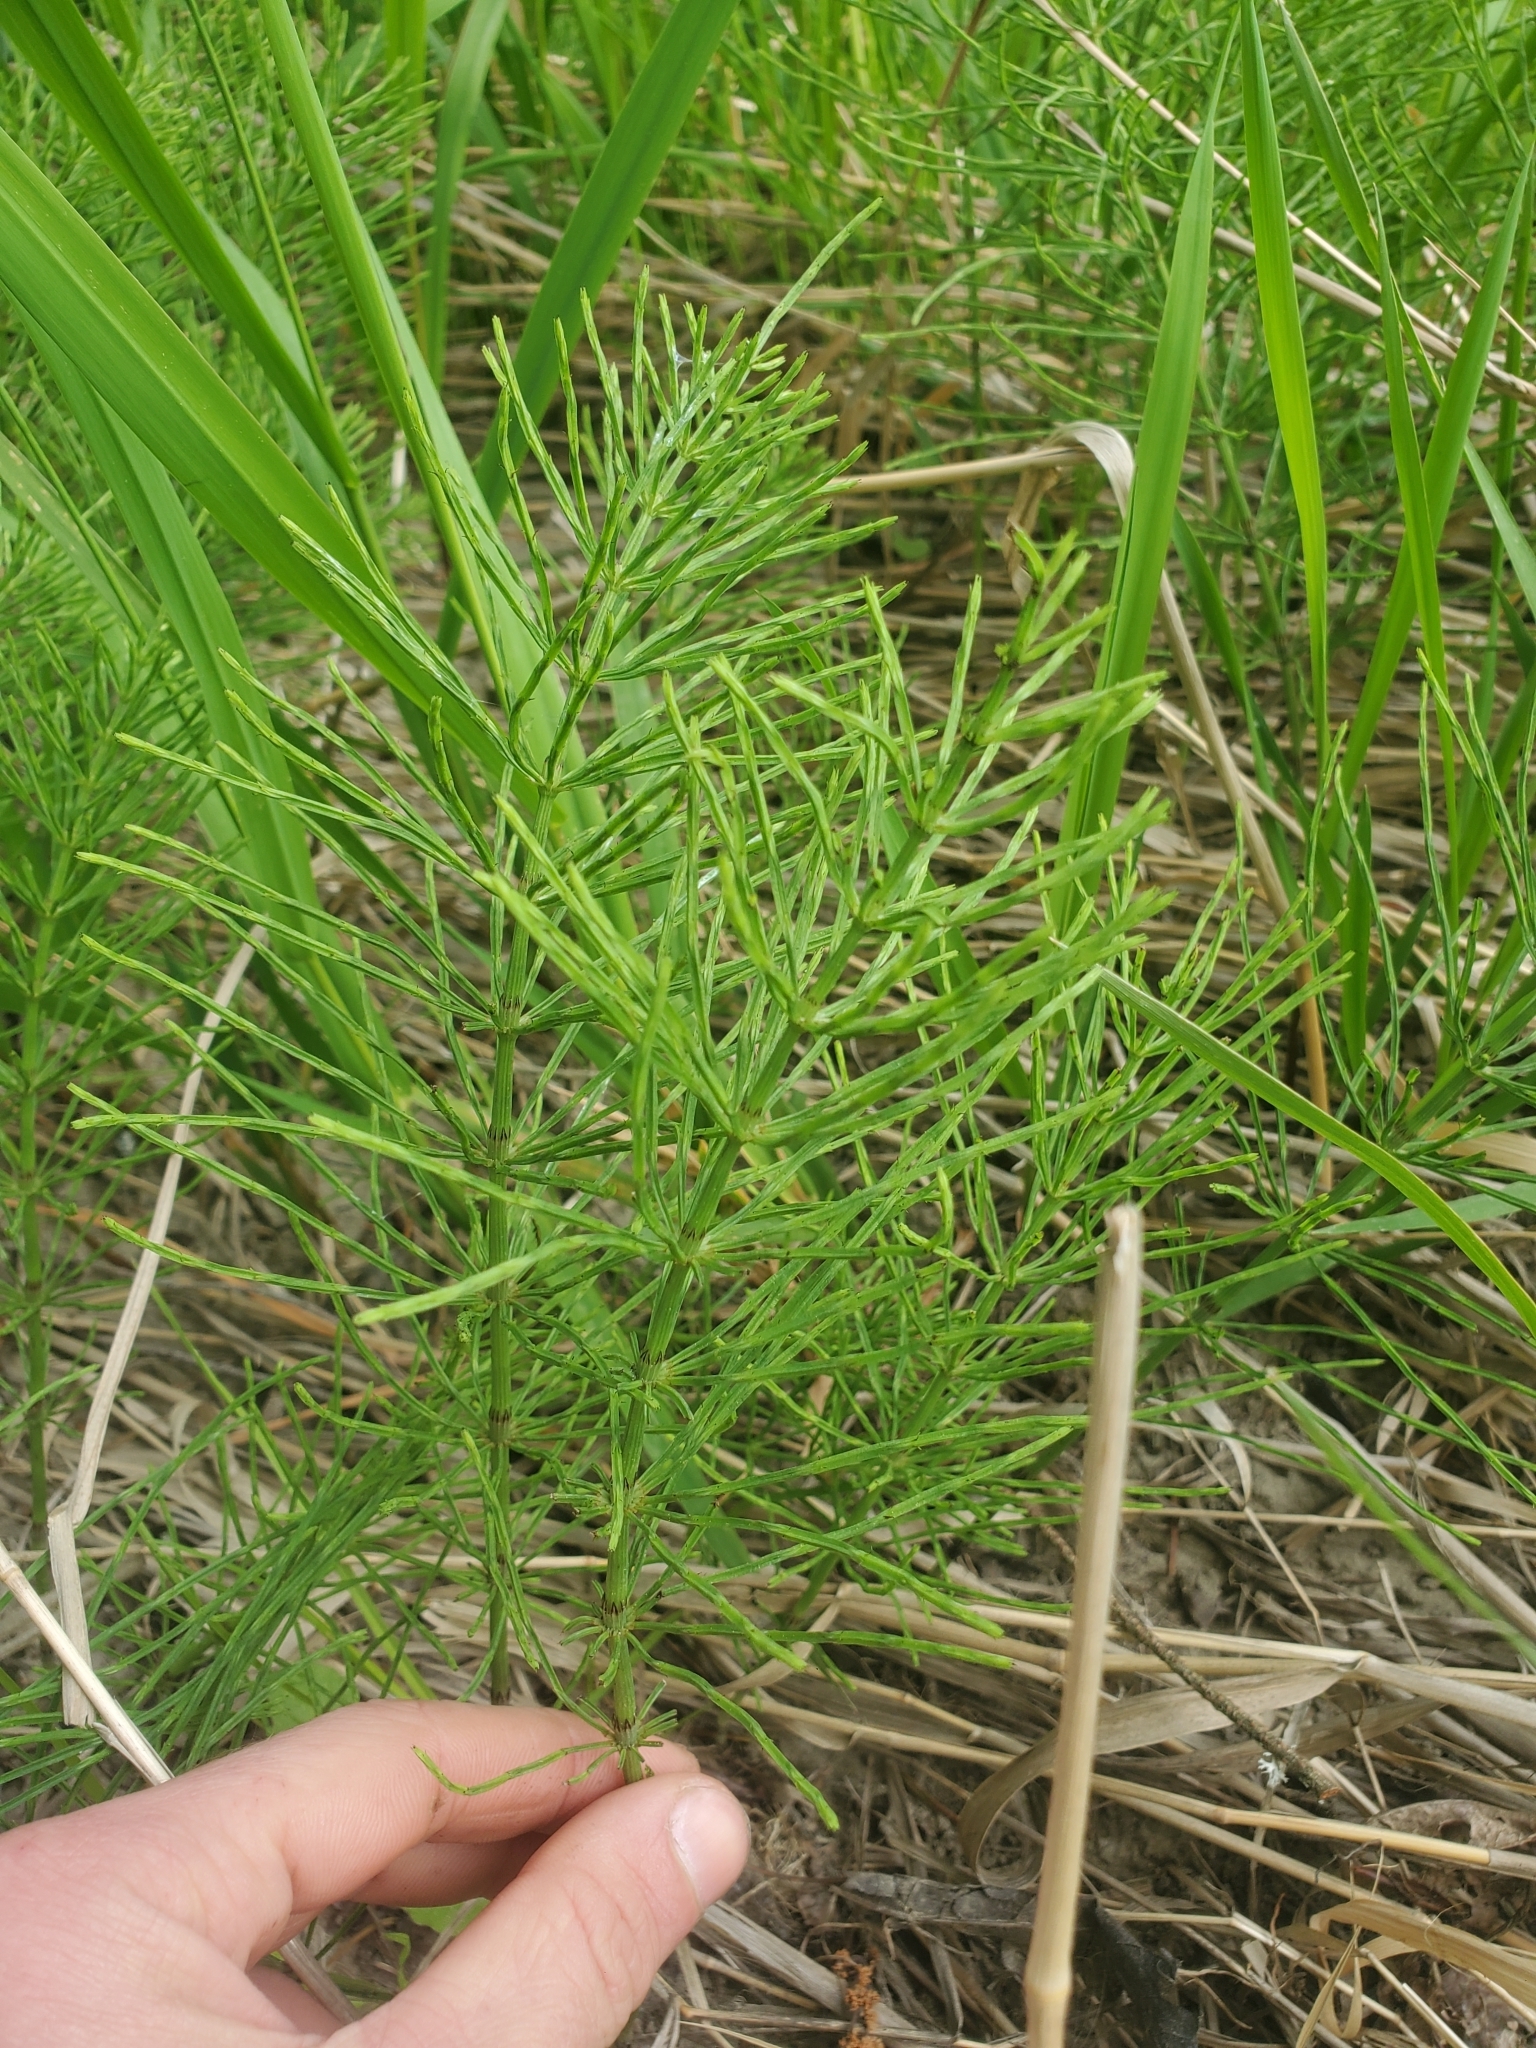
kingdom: Plantae
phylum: Tracheophyta
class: Polypodiopsida
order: Equisetales
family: Equisetaceae
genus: Equisetum
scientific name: Equisetum arvense
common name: Field horsetail
